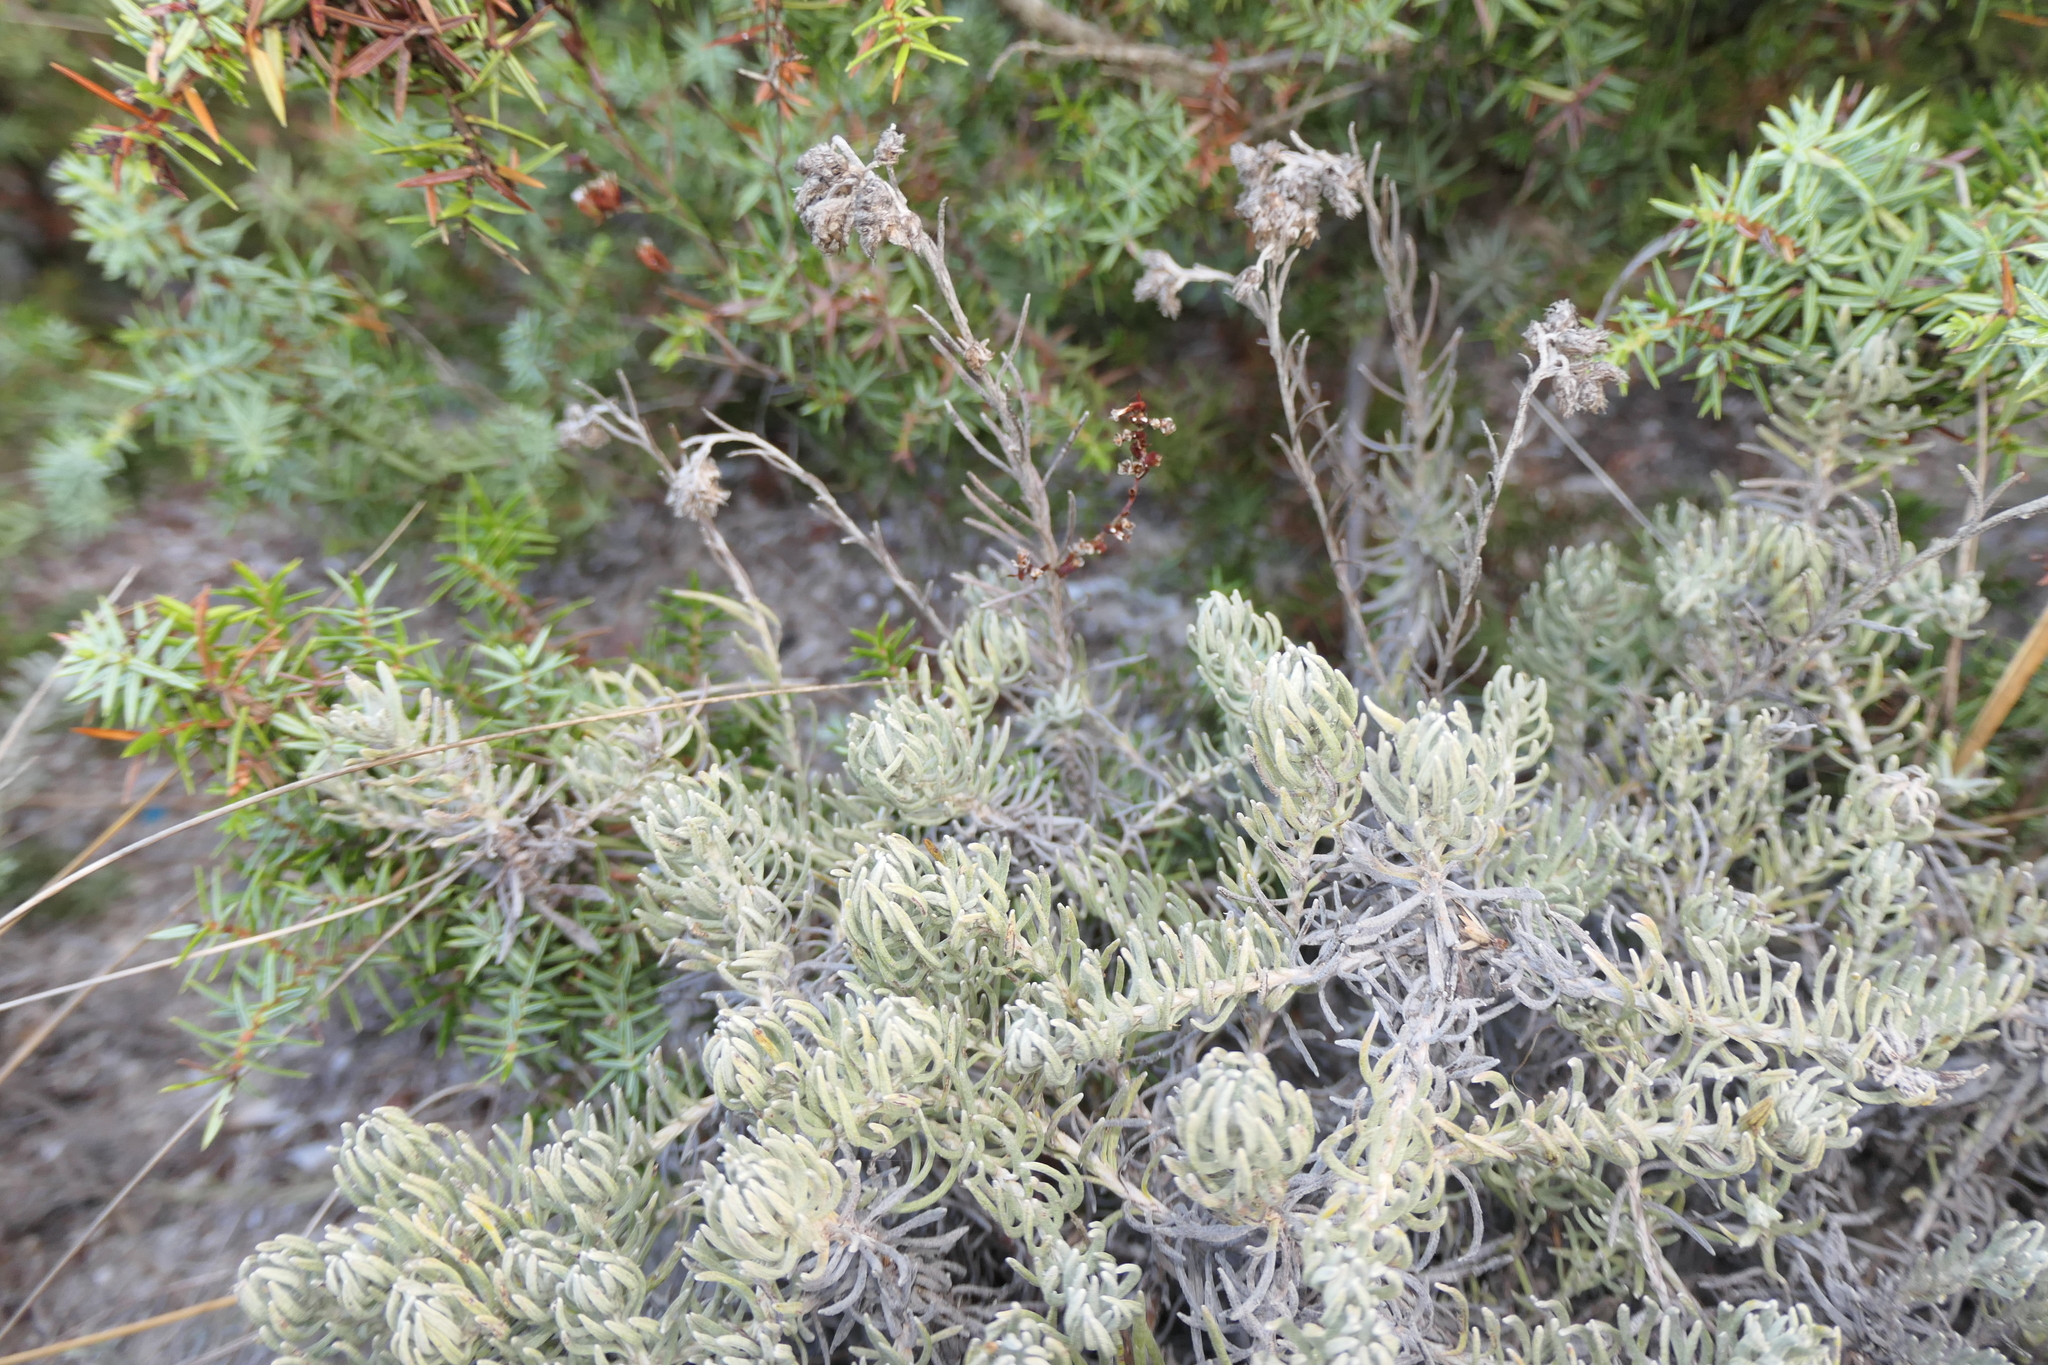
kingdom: Plantae
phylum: Tracheophyta
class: Magnoliopsida
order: Asterales
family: Asteraceae
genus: Helichrysum
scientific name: Helichrysum stoechas
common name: Goldilocks
